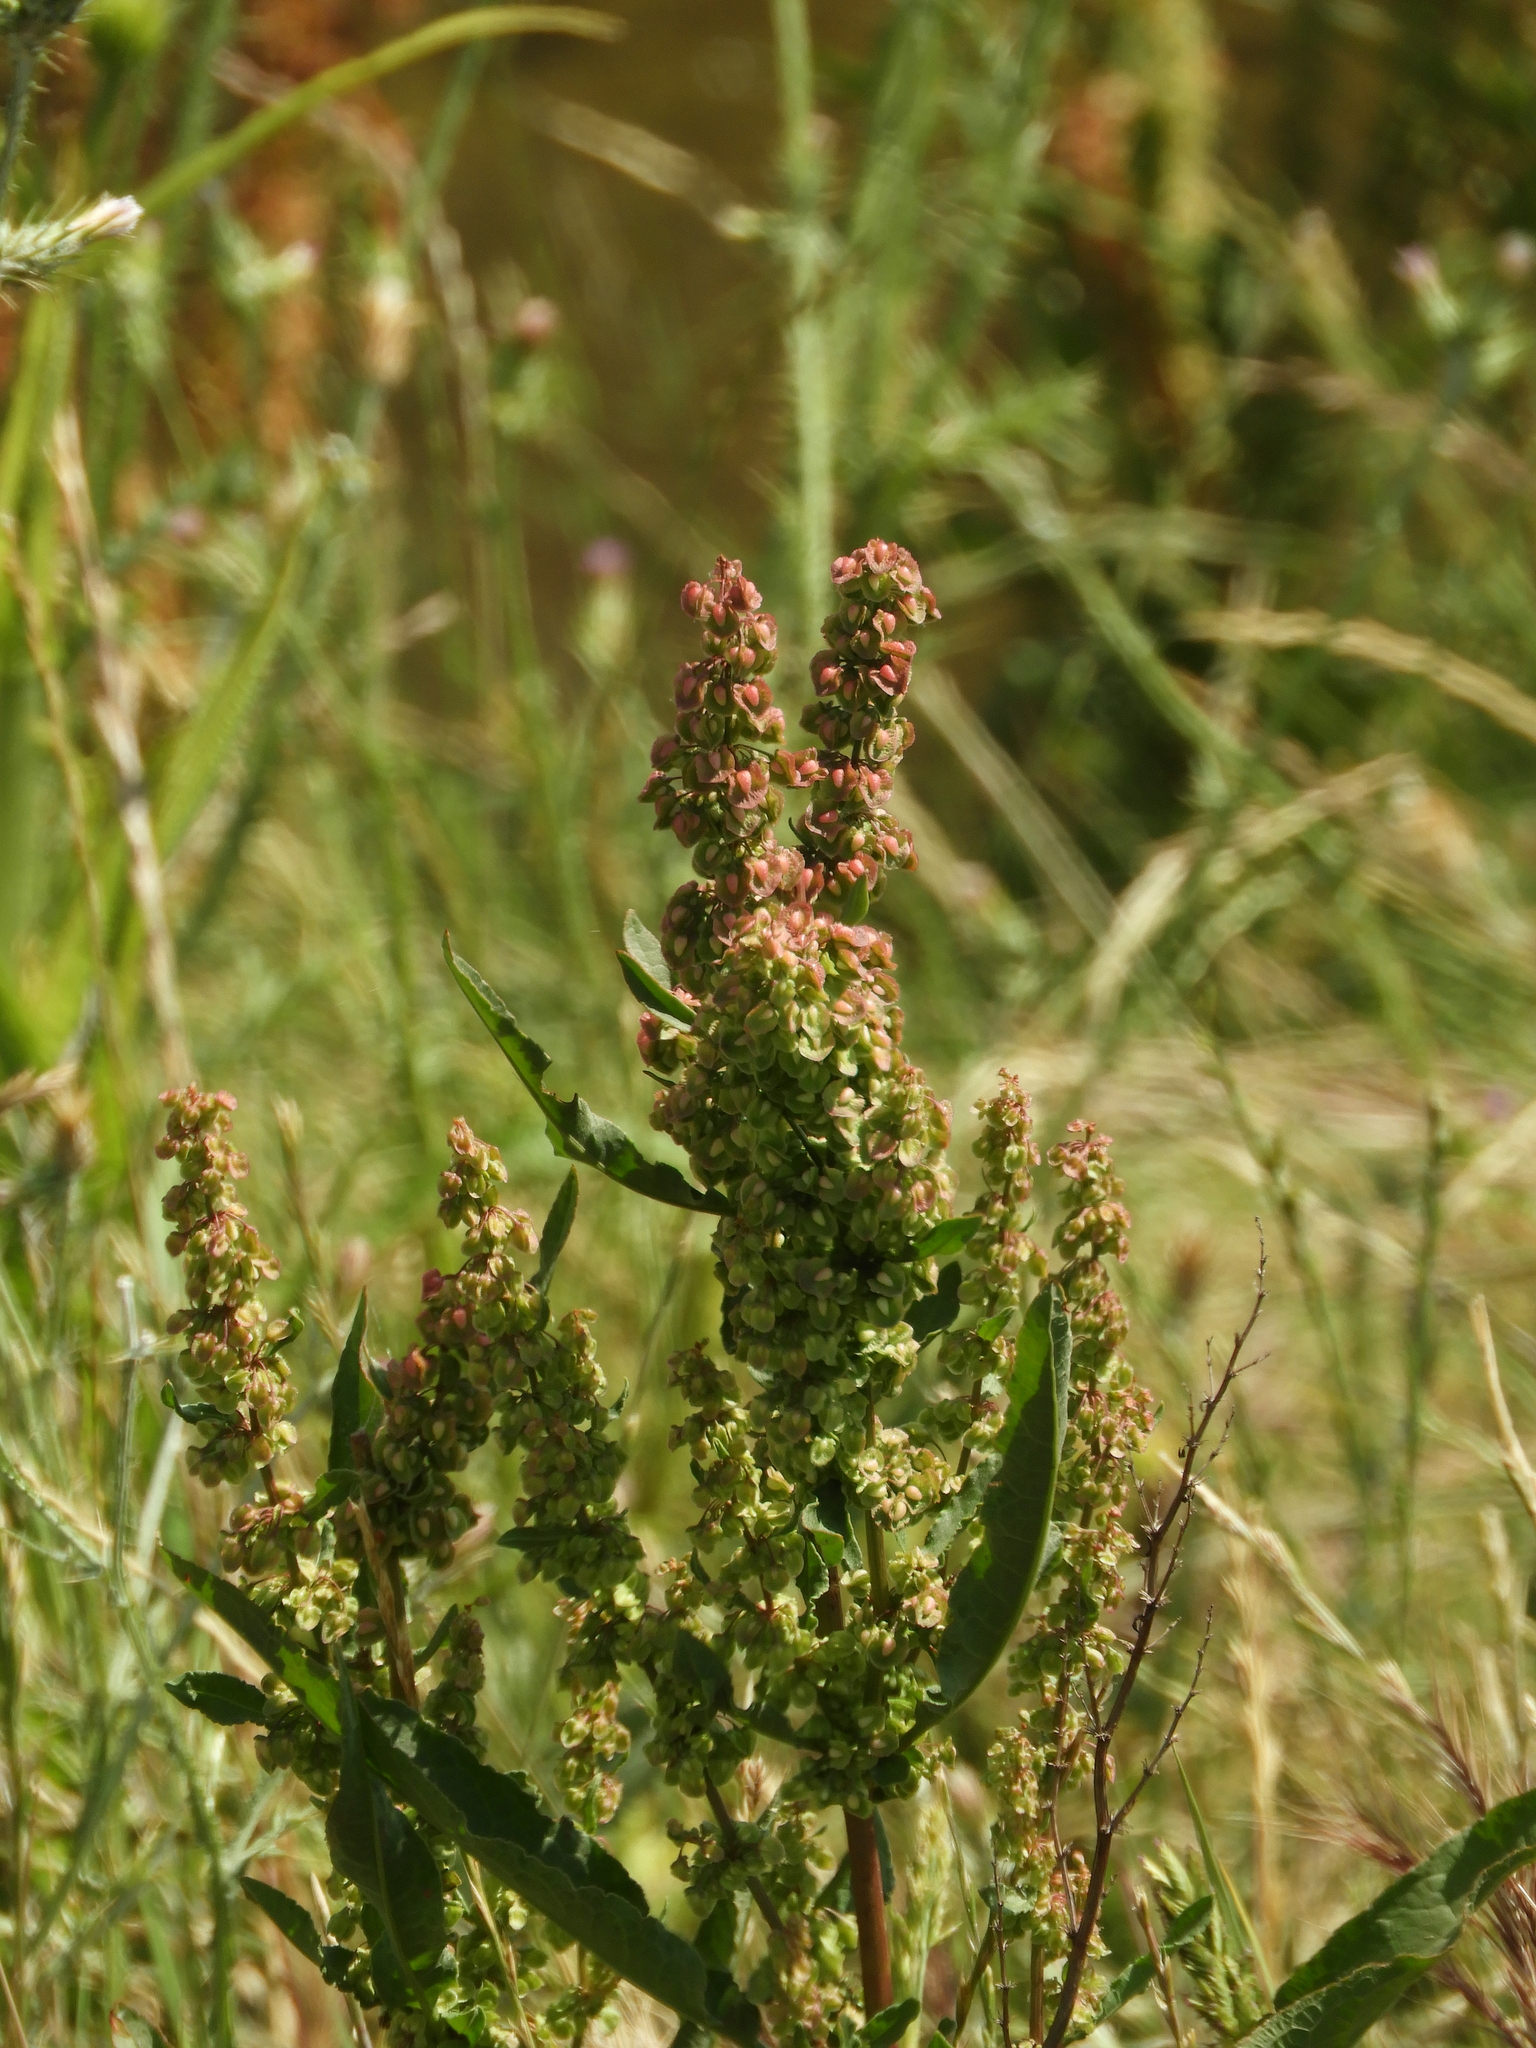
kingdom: Plantae
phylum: Tracheophyta
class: Magnoliopsida
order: Caryophyllales
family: Polygonaceae
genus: Rumex
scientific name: Rumex crispus
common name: Curled dock
